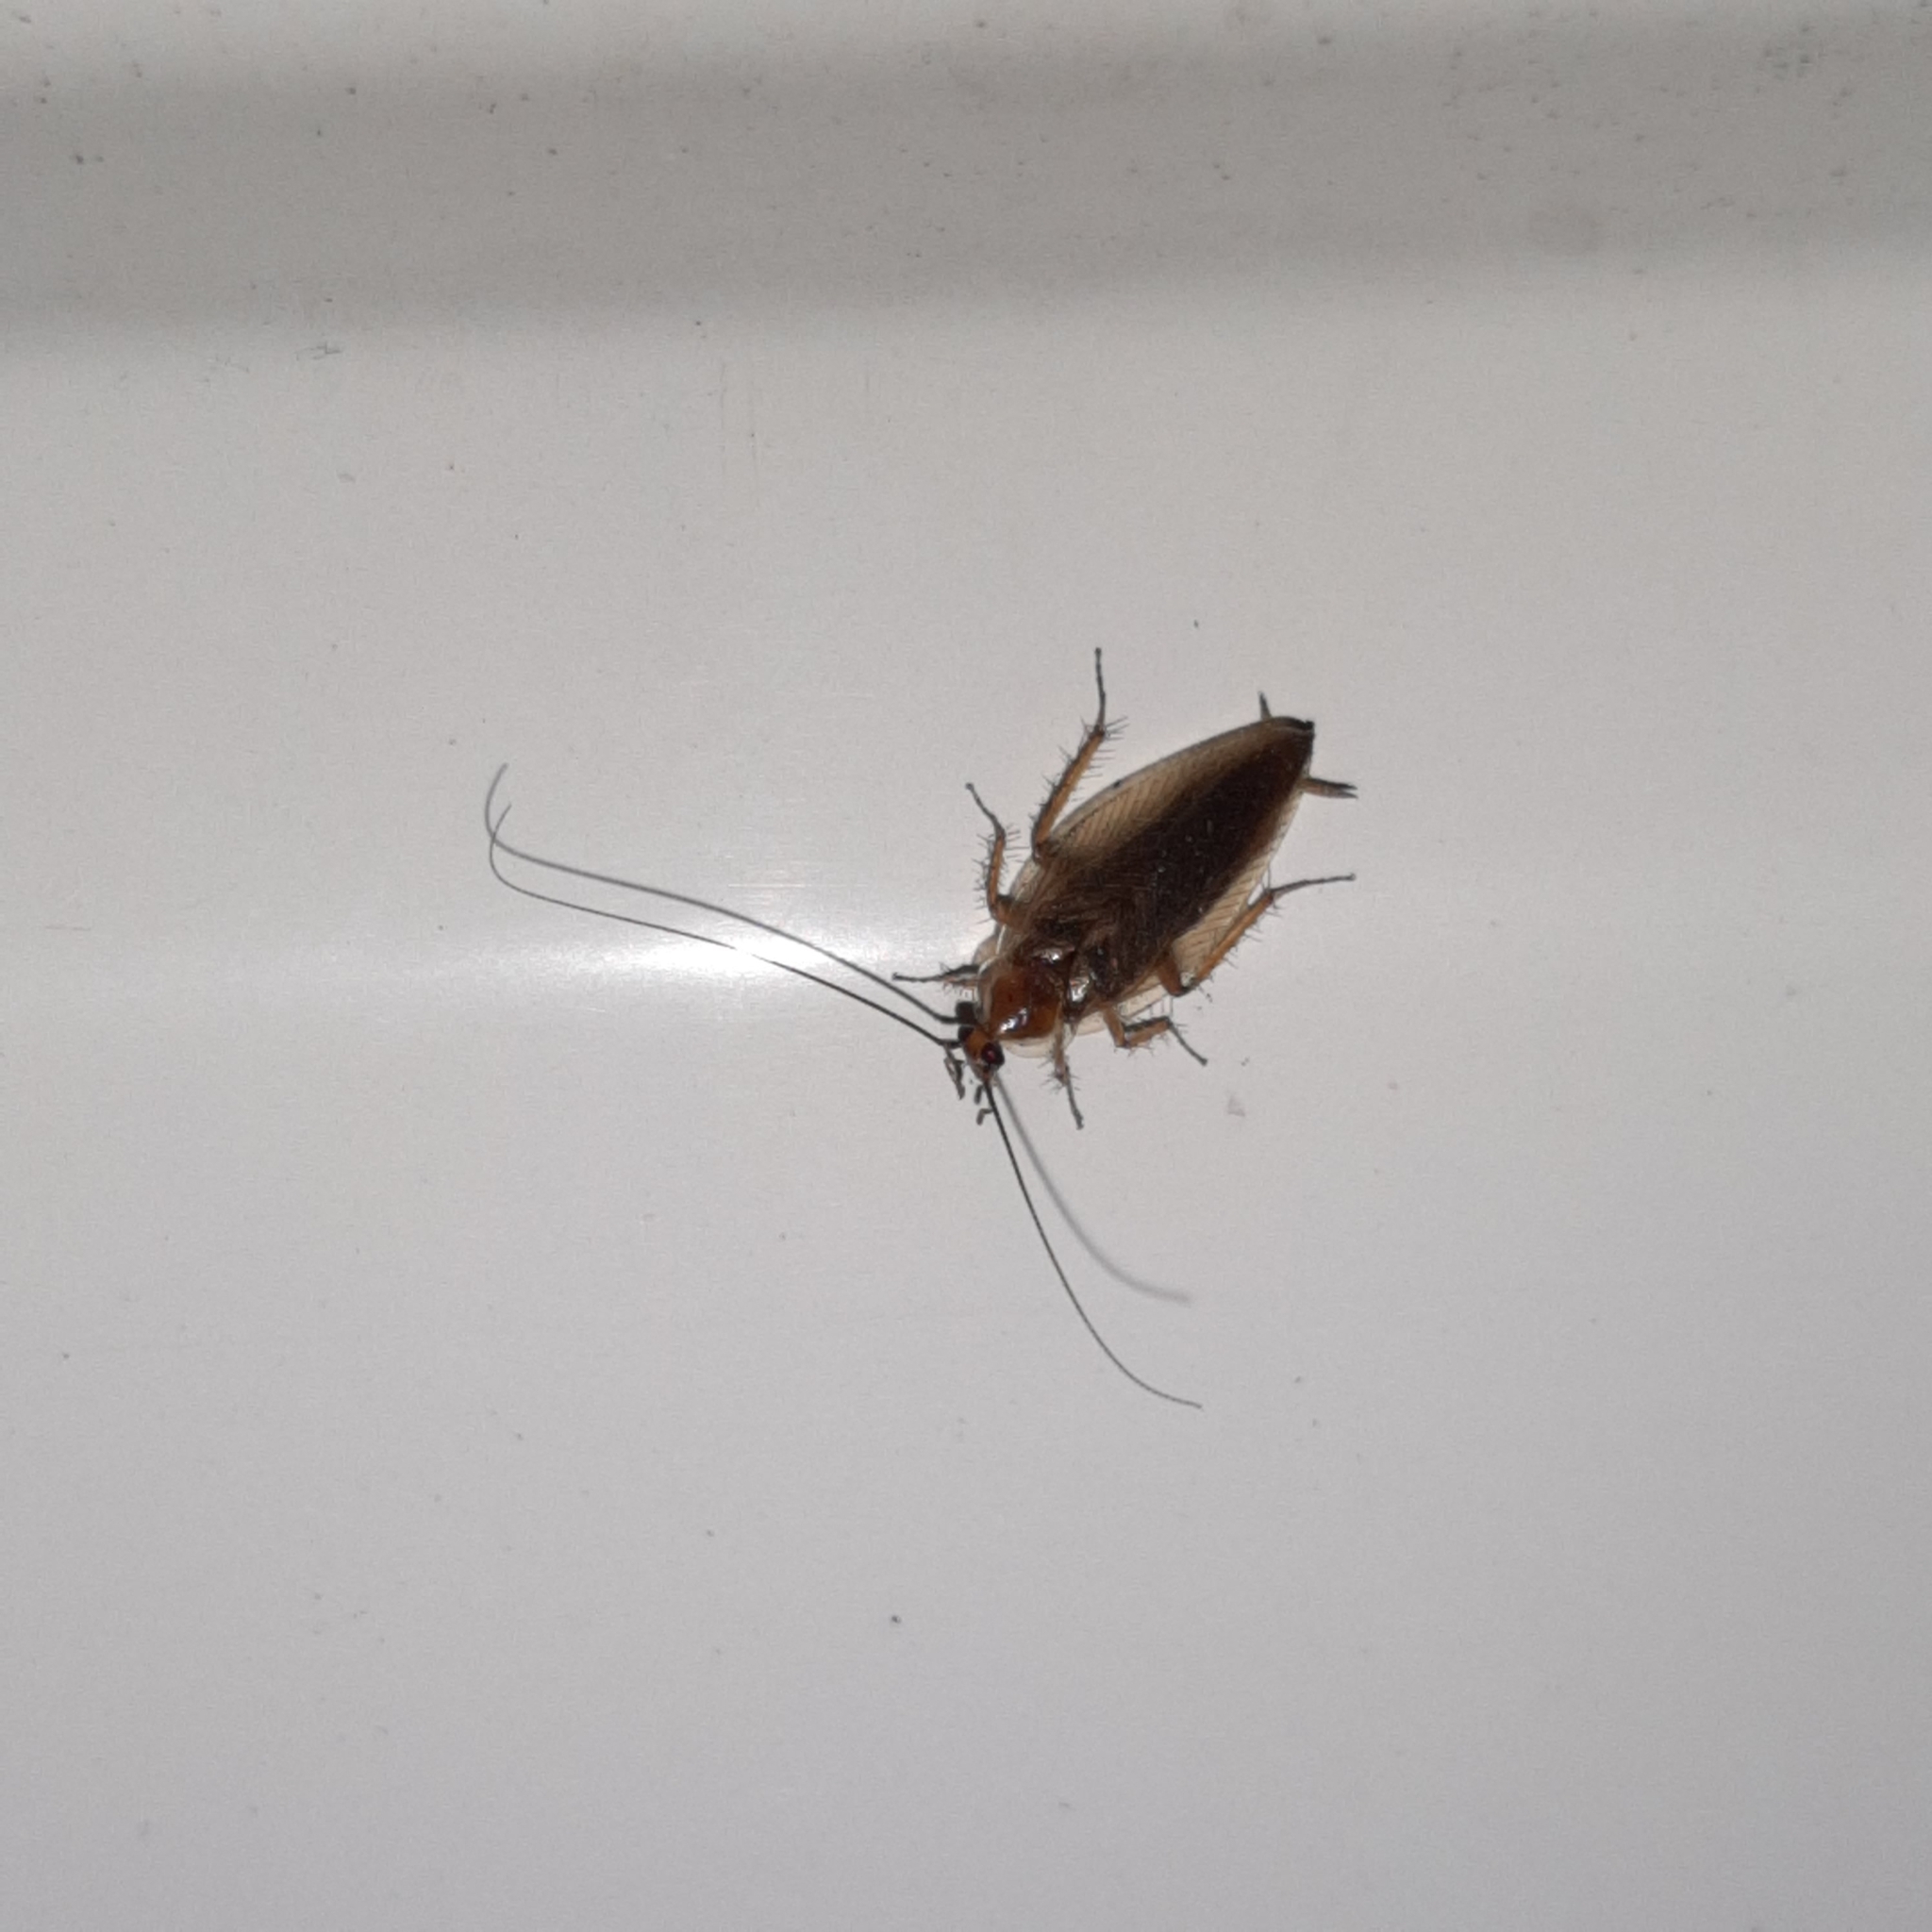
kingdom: Animalia
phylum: Arthropoda
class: Insecta
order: Blattodea
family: Ectobiidae
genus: Ectobius
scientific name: Ectobius vittiventris
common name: Garden cockroach
